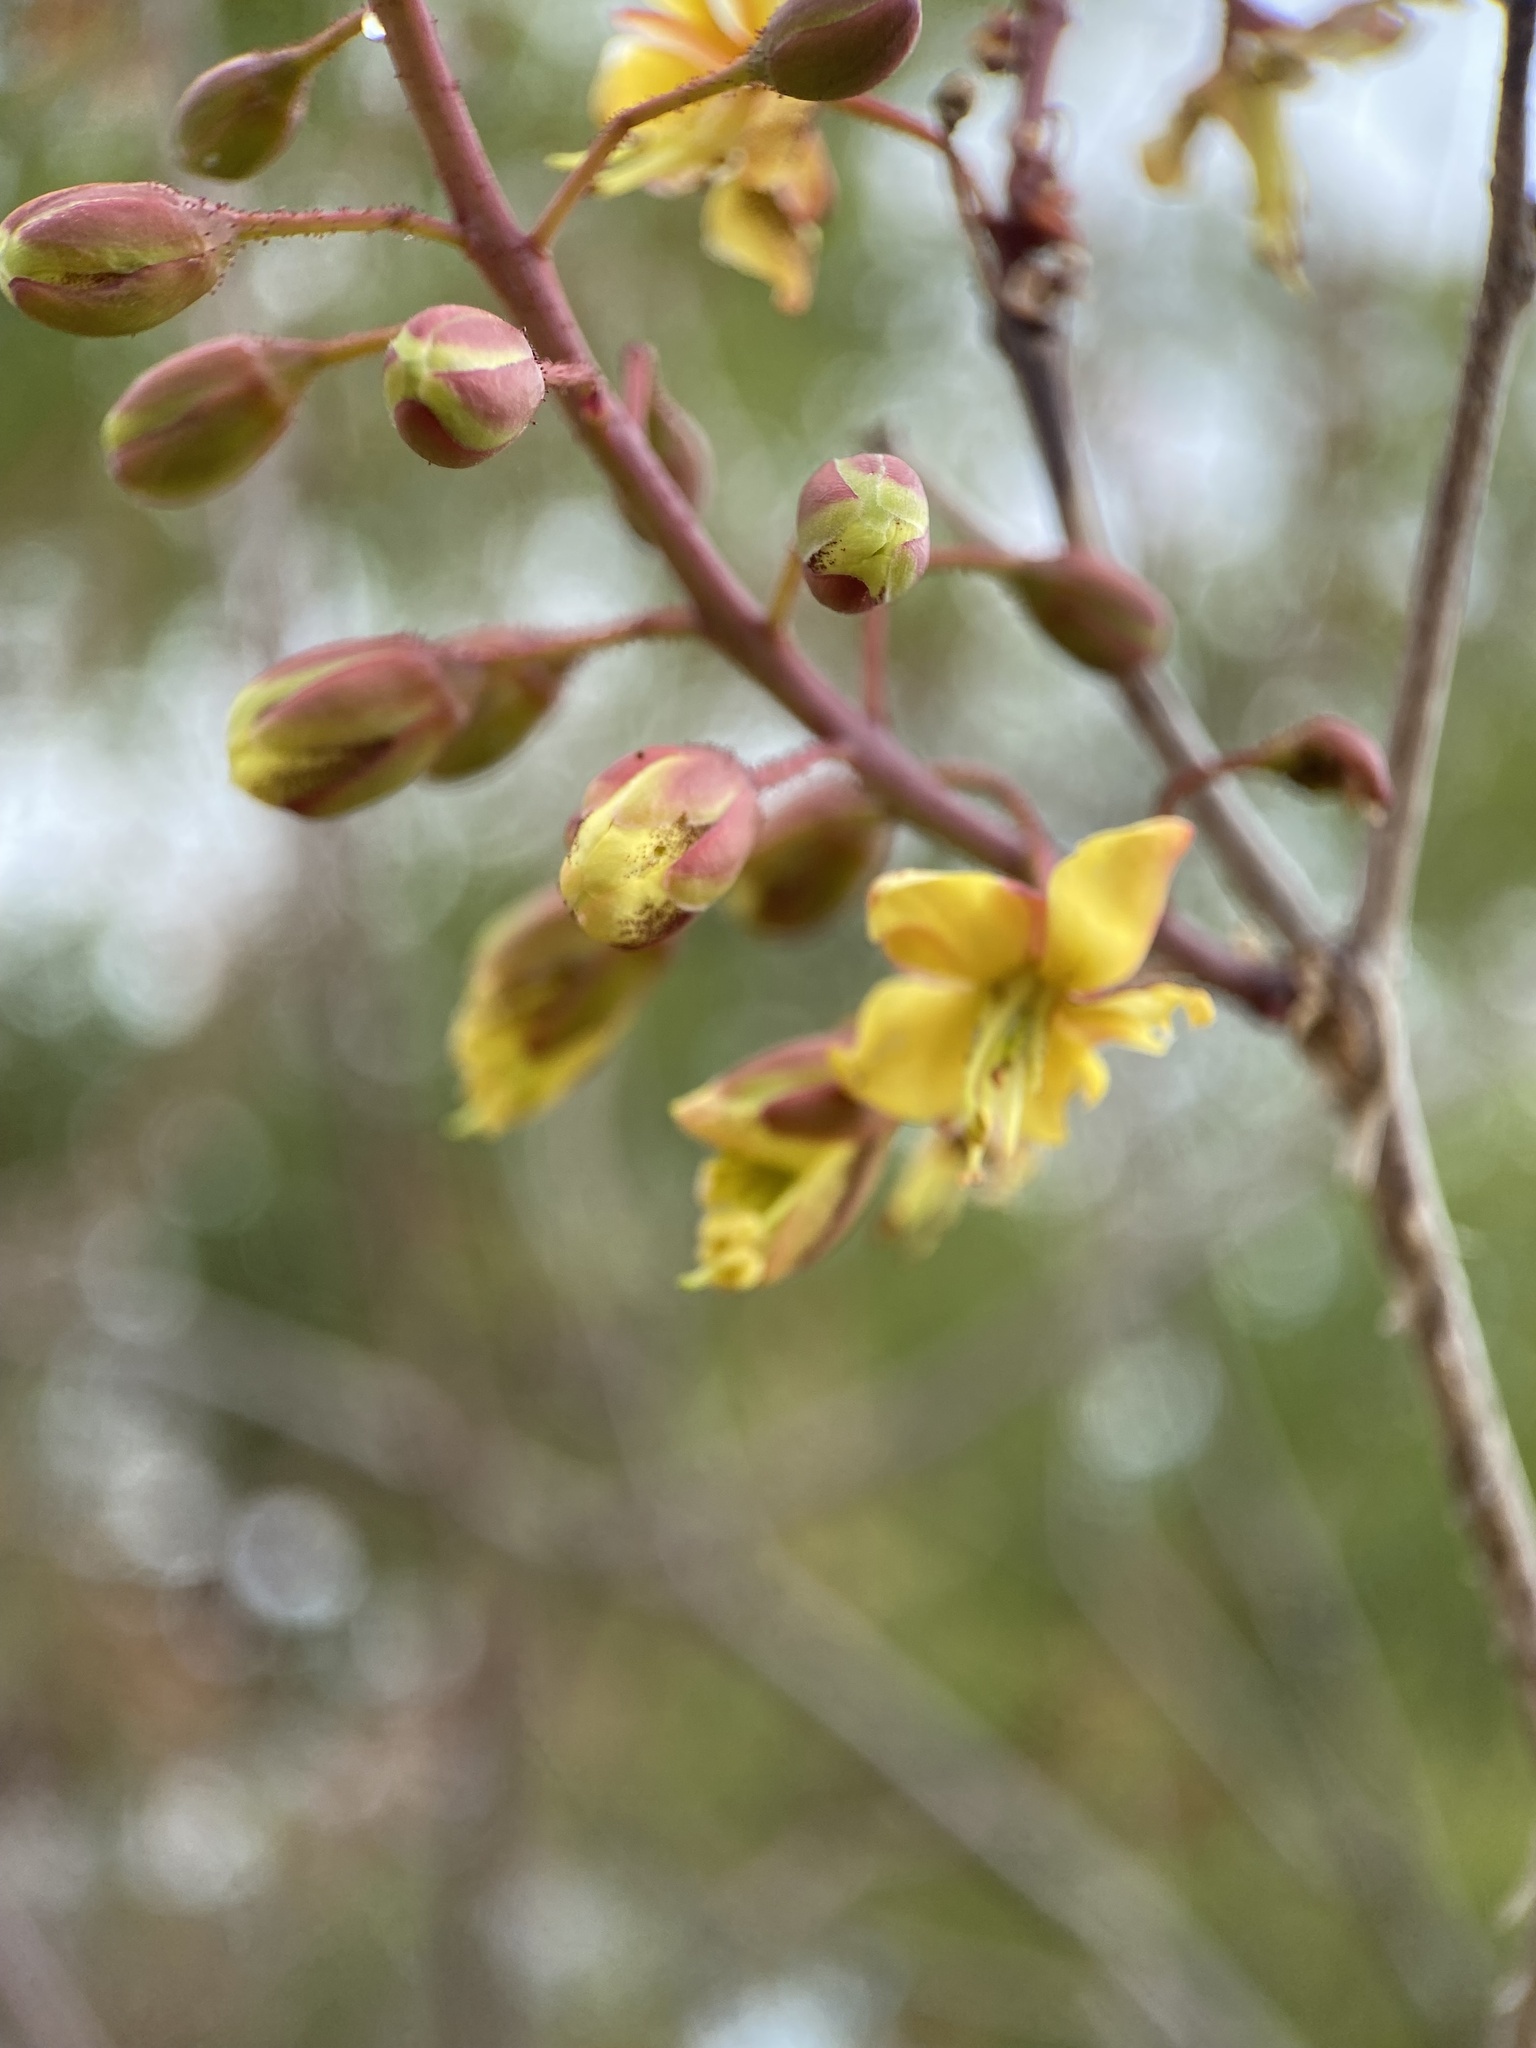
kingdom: Plantae
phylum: Tracheophyta
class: Magnoliopsida
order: Fabales
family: Fabaceae
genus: Erythrostemon
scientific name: Erythrostemon pannosus
